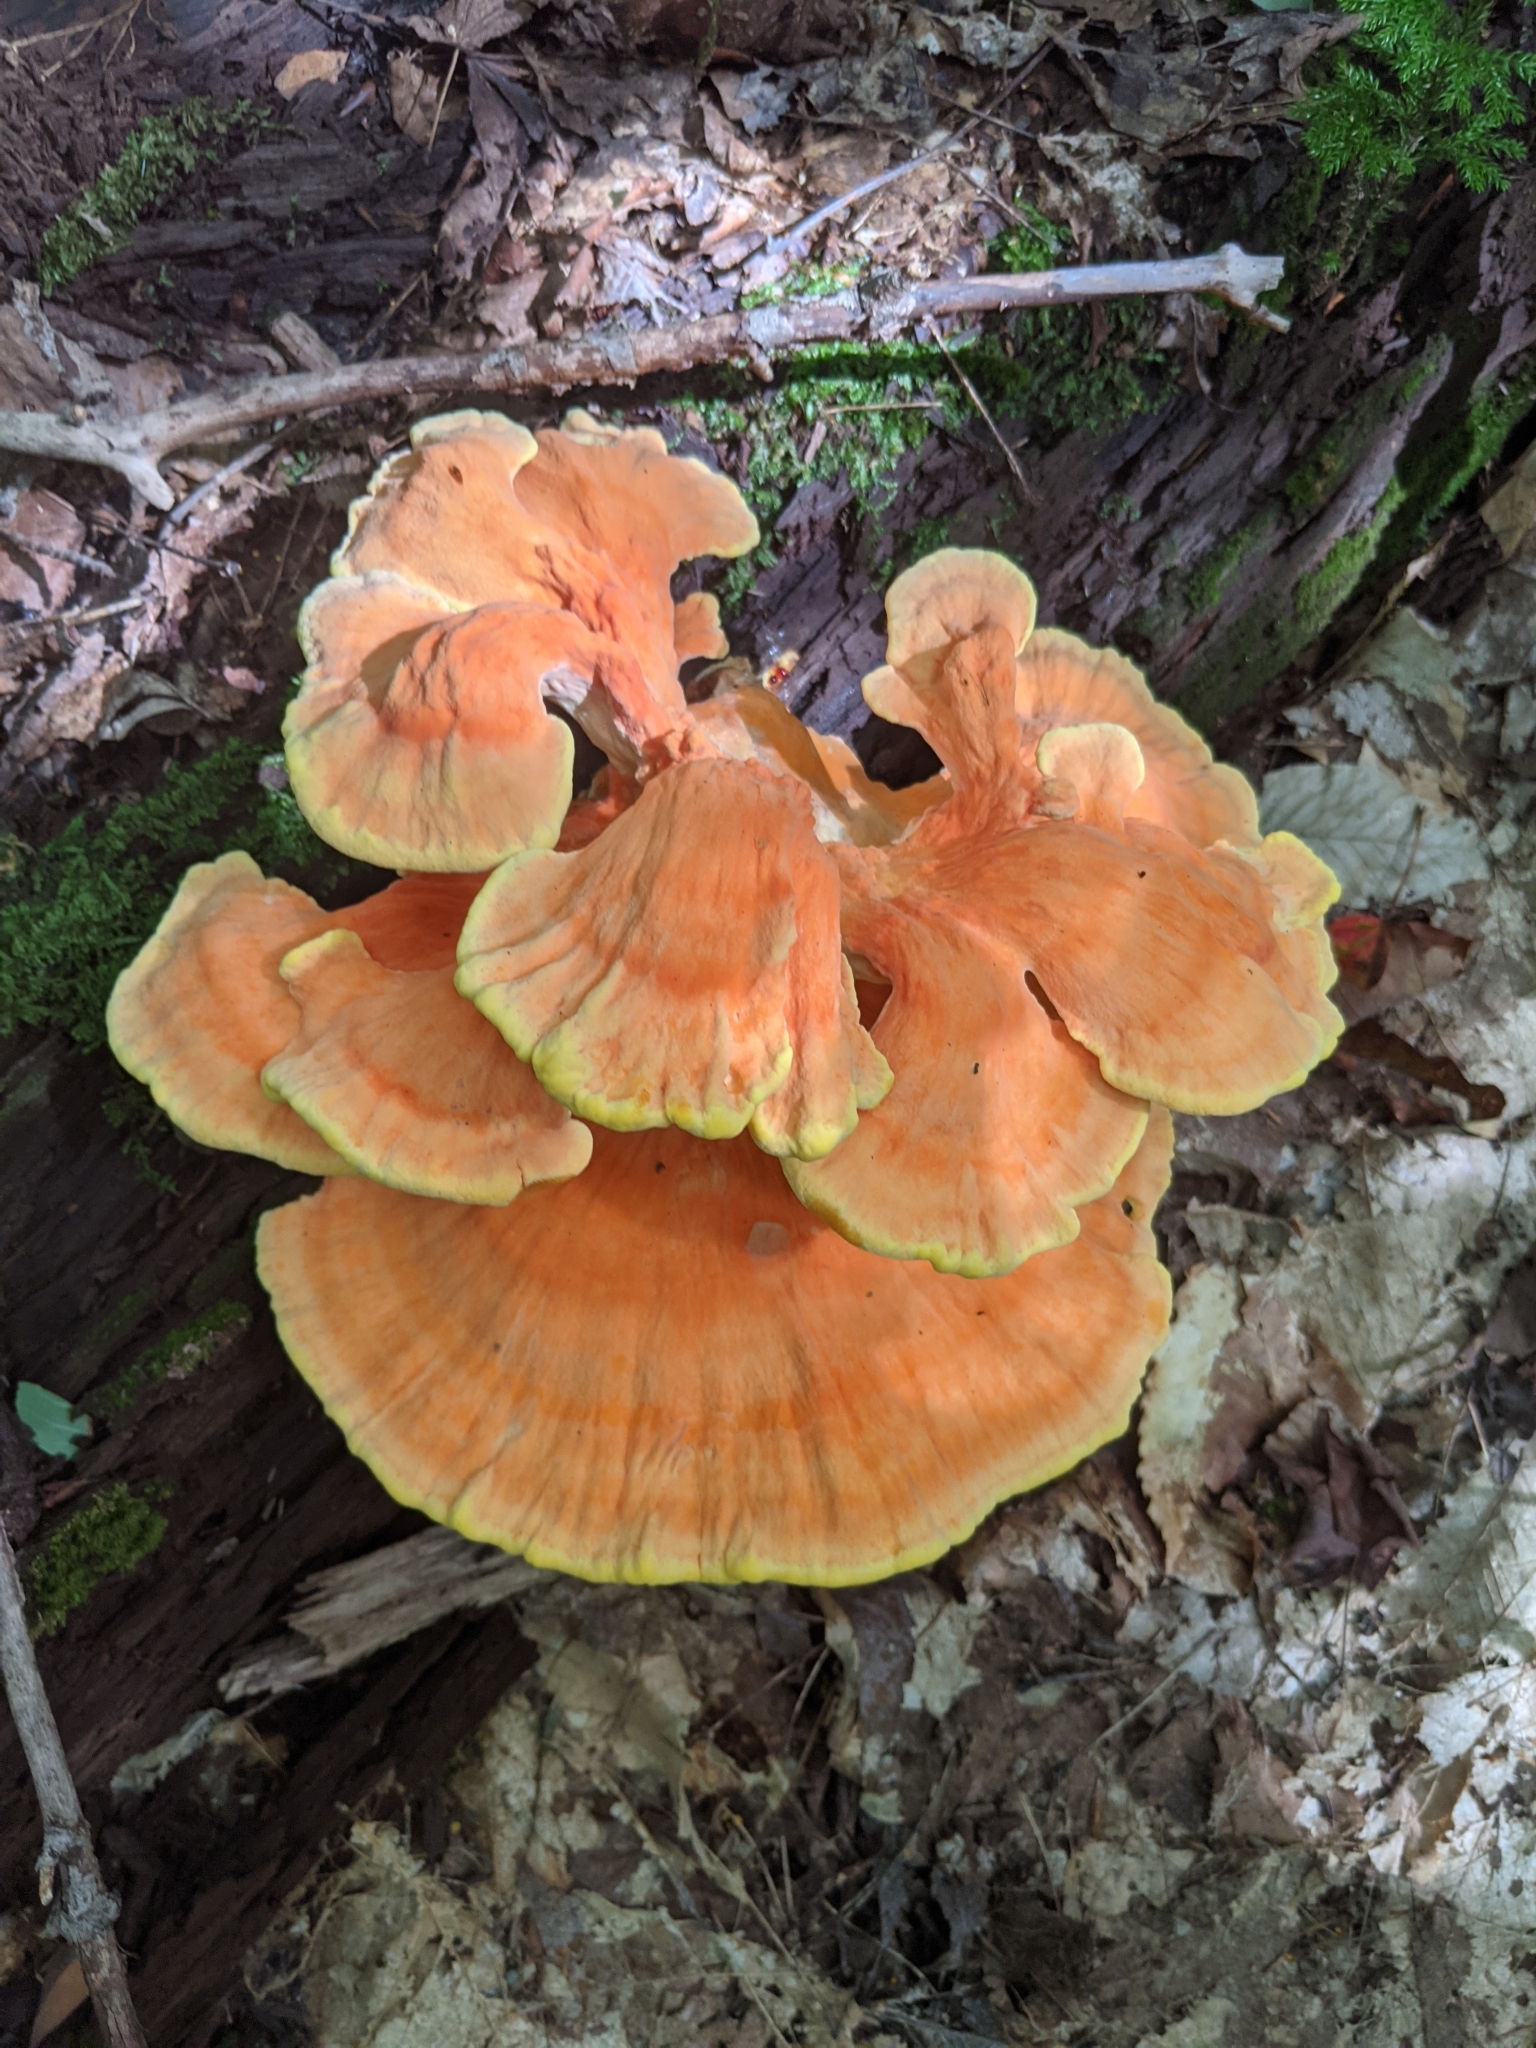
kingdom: Fungi
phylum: Basidiomycota
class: Agaricomycetes
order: Polyporales
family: Laetiporaceae
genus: Laetiporus
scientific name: Laetiporus sulphureus
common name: Chicken of the woods
